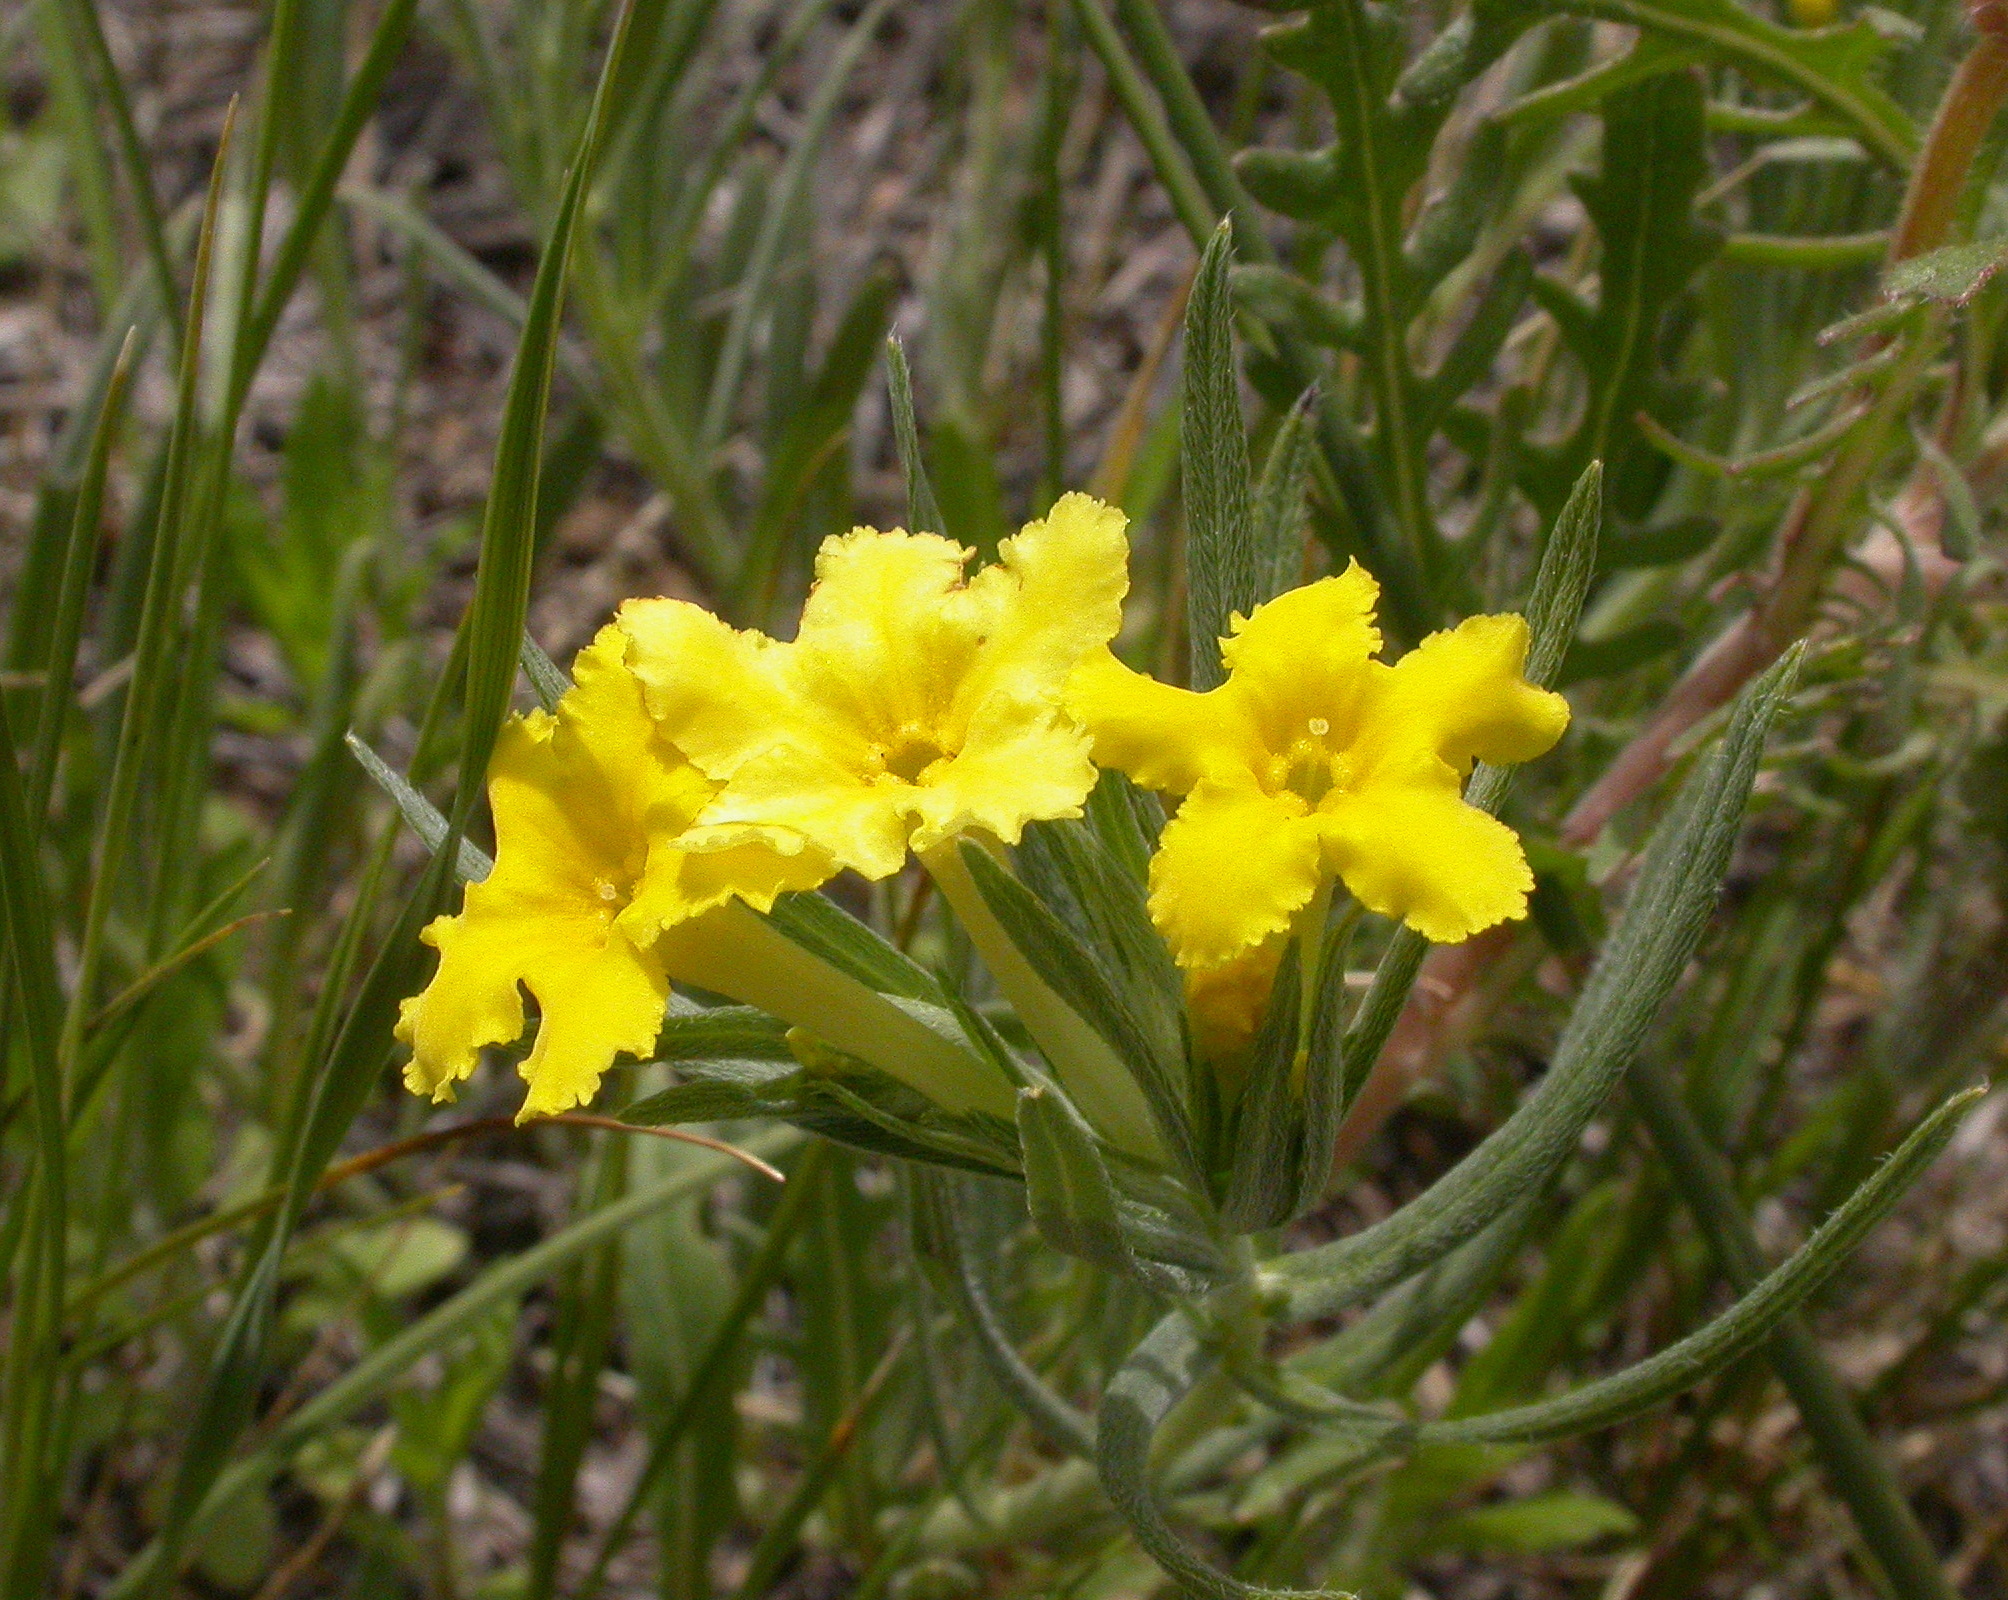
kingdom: Plantae
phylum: Tracheophyta
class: Magnoliopsida
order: Boraginales
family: Boraginaceae
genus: Lithospermum
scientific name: Lithospermum incisum
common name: Fringed gromwell
